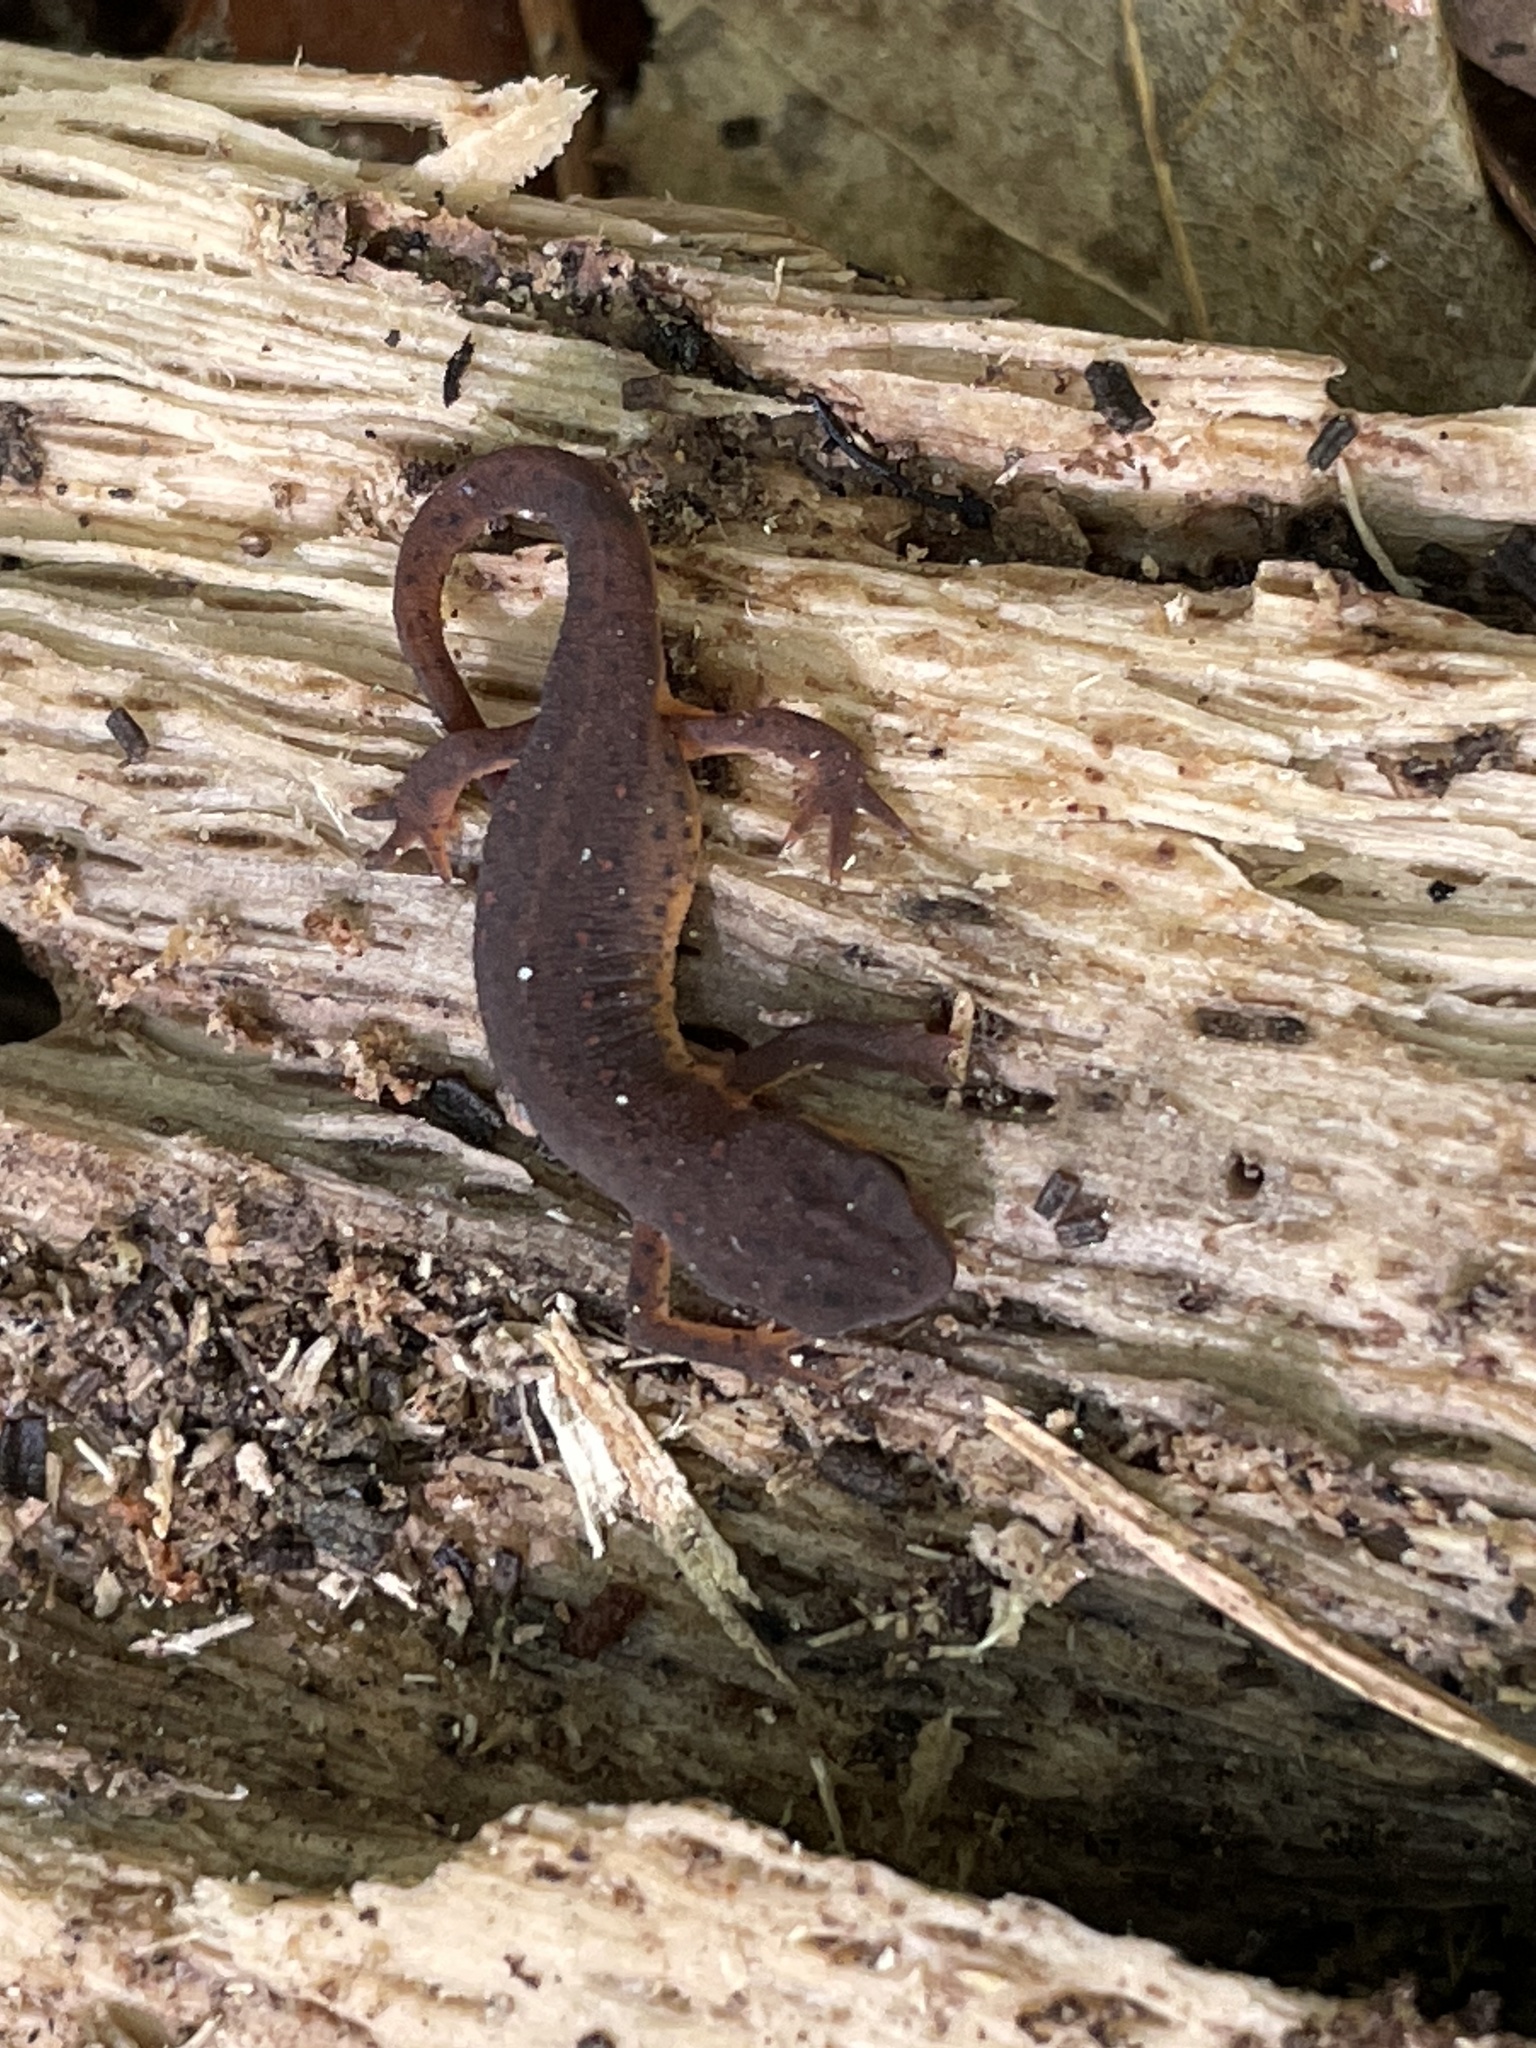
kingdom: Animalia
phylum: Chordata
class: Amphibia
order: Caudata
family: Salamandridae
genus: Notophthalmus
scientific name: Notophthalmus viridescens
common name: Eastern newt
